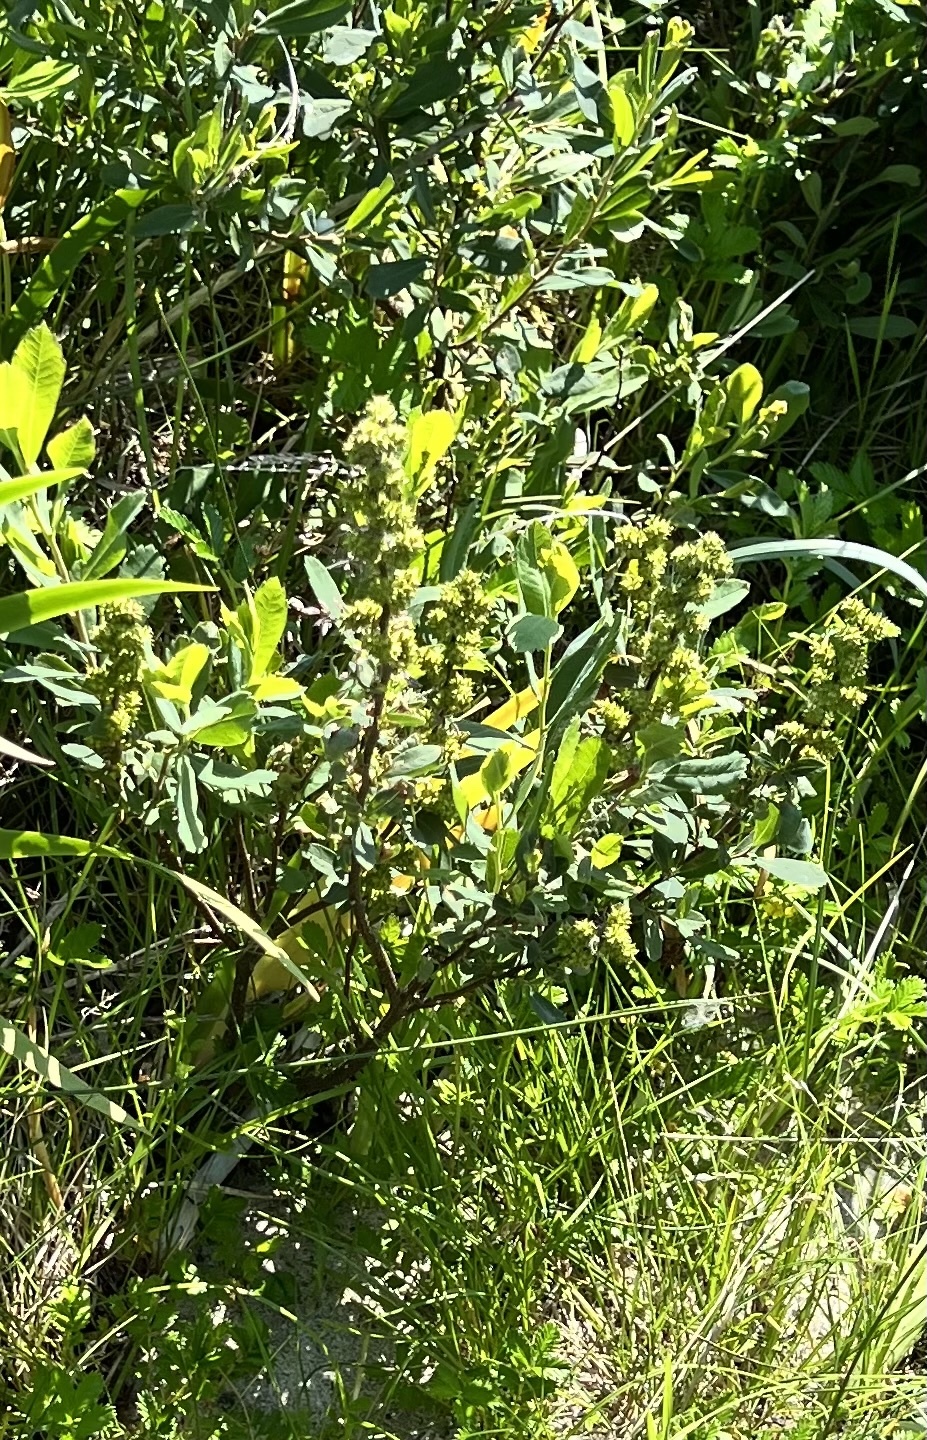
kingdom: Plantae
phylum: Tracheophyta
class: Magnoliopsida
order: Fagales
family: Myricaceae
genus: Myrica
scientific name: Myrica gale
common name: Sweet gale
